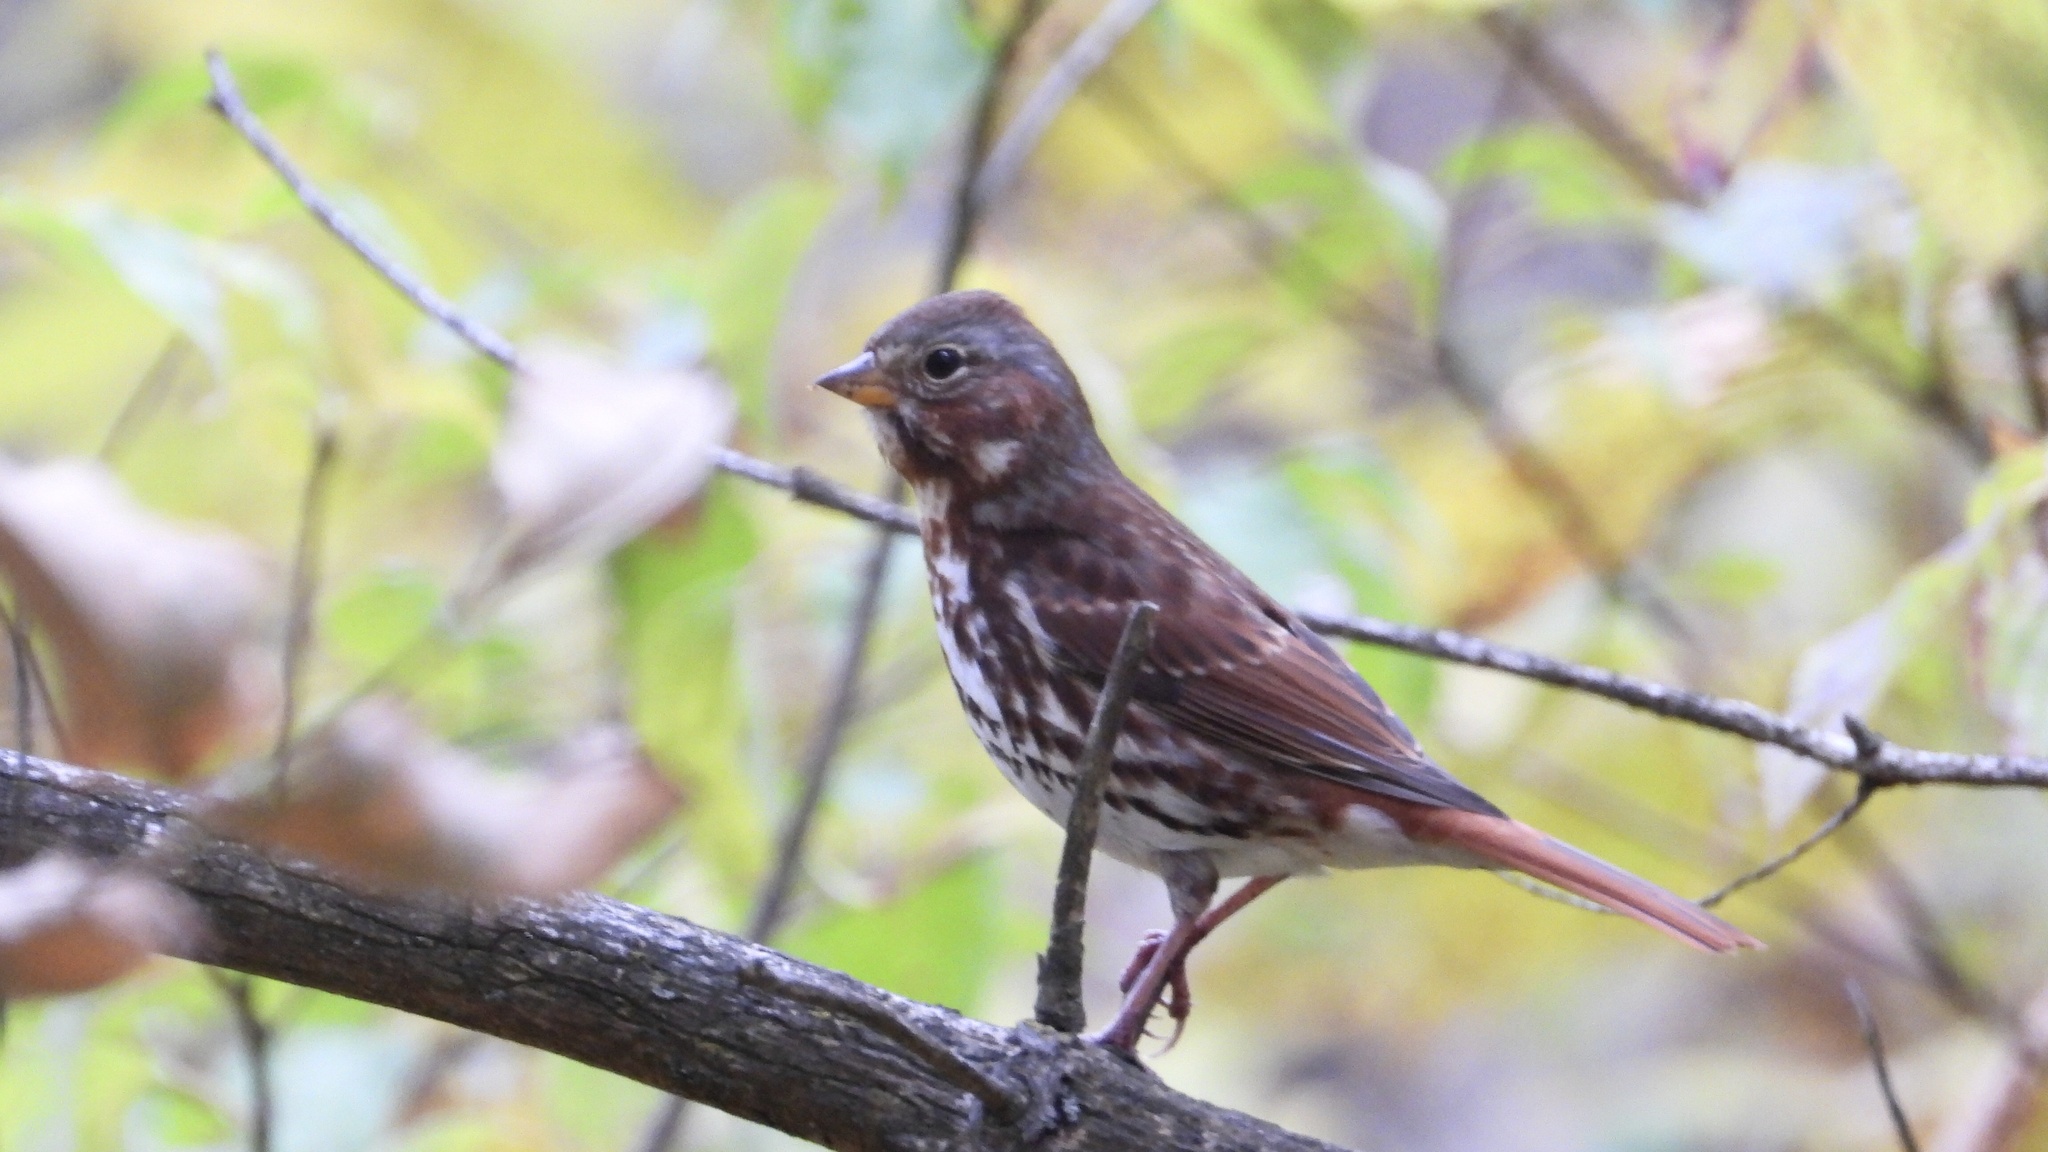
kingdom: Animalia
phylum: Chordata
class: Aves
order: Passeriformes
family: Passerellidae
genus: Passerella
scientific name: Passerella iliaca
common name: Fox sparrow
